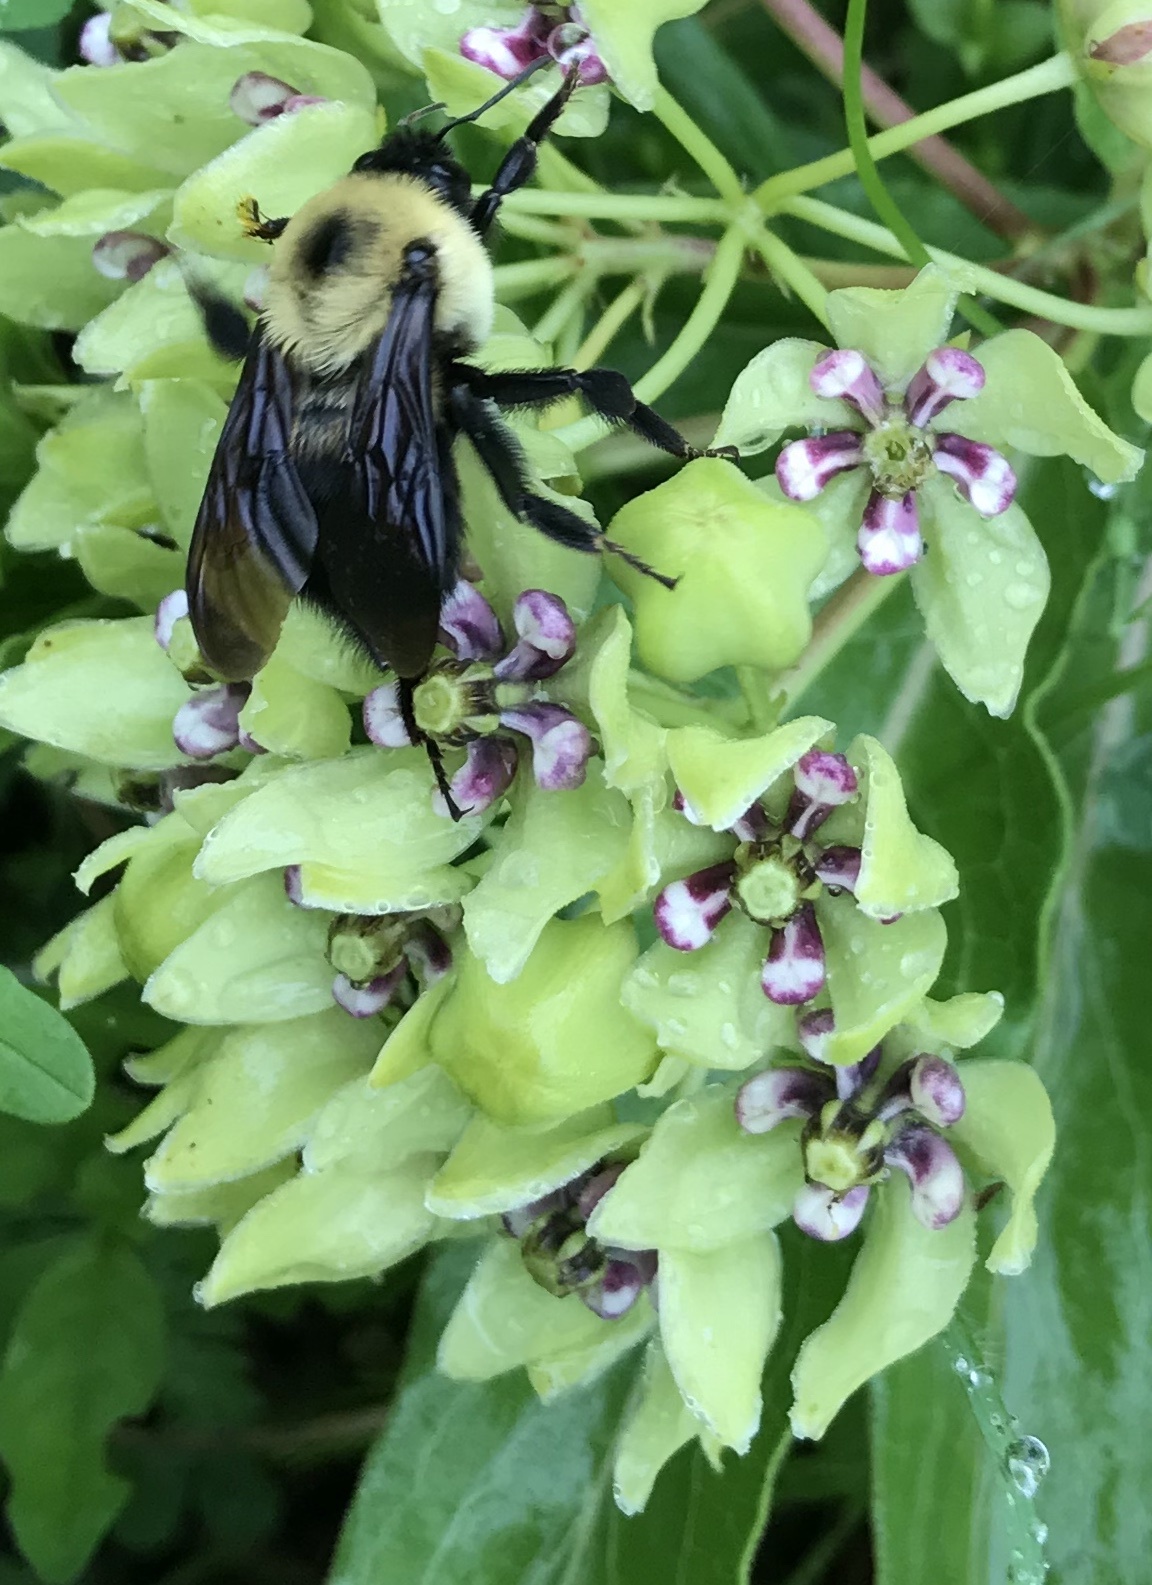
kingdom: Animalia
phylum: Arthropoda
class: Insecta
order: Hymenoptera
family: Apidae
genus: Bombus
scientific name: Bombus griseocollis
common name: Brown-belted bumble bee
